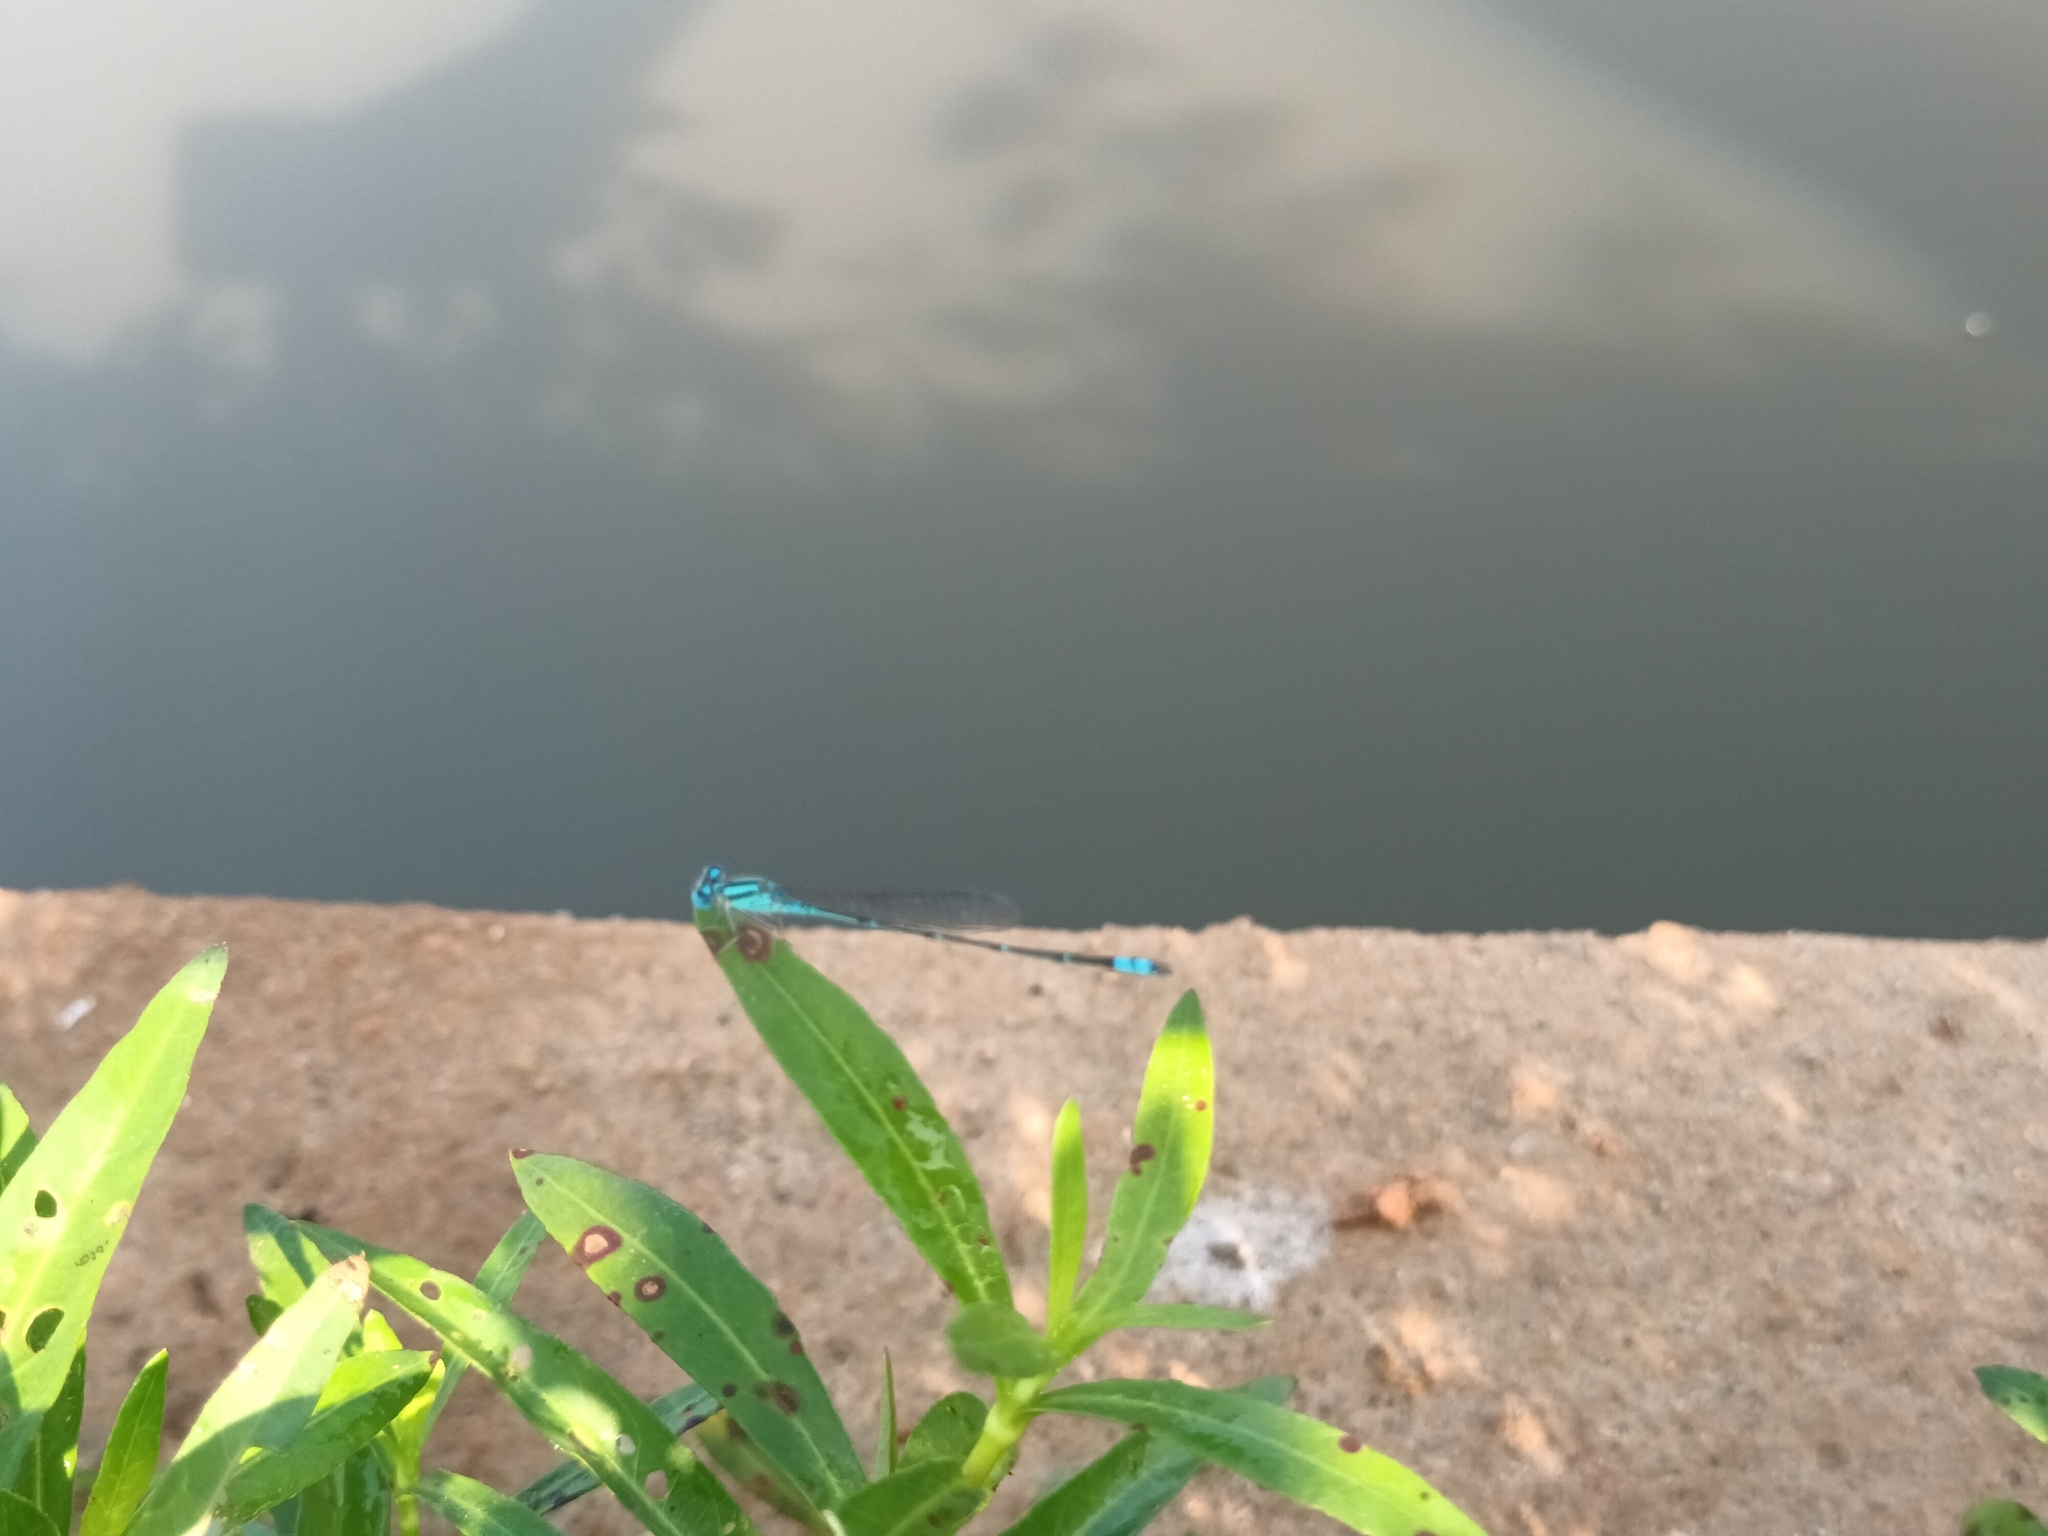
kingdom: Animalia
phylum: Arthropoda
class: Insecta
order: Odonata
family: Coenagrionidae
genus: Pseudagrion
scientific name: Pseudagrion microcephalum
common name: Blue riverdamsel
